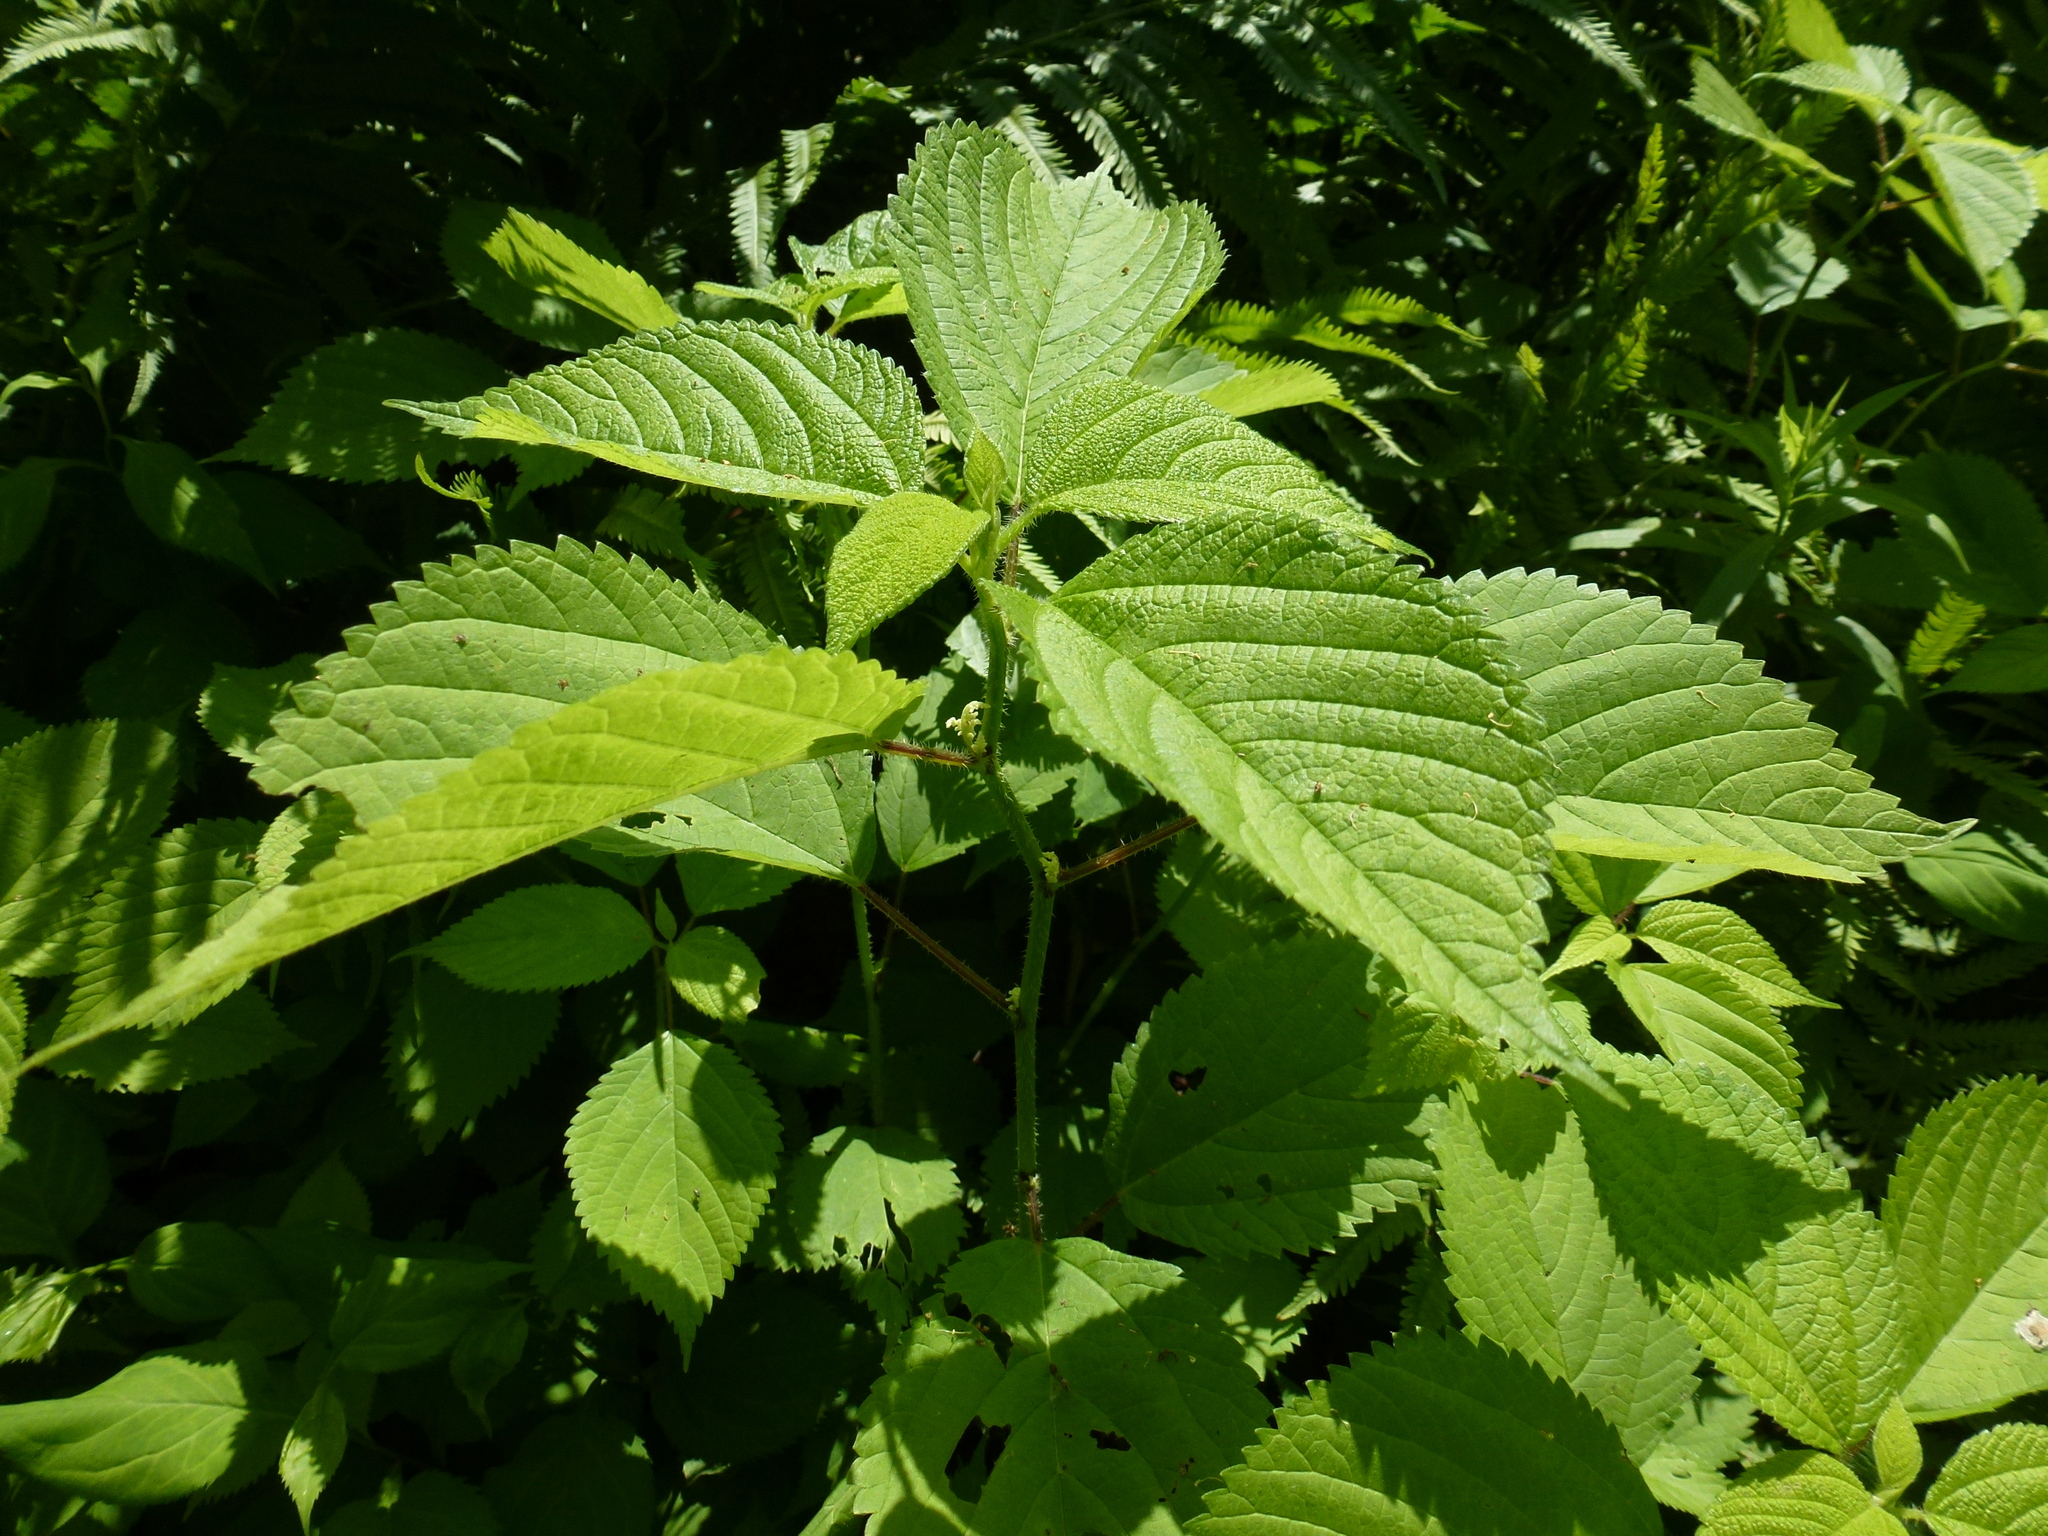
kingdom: Plantae
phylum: Tracheophyta
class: Magnoliopsida
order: Rosales
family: Urticaceae
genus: Laportea
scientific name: Laportea canadensis
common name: Canada nettle
